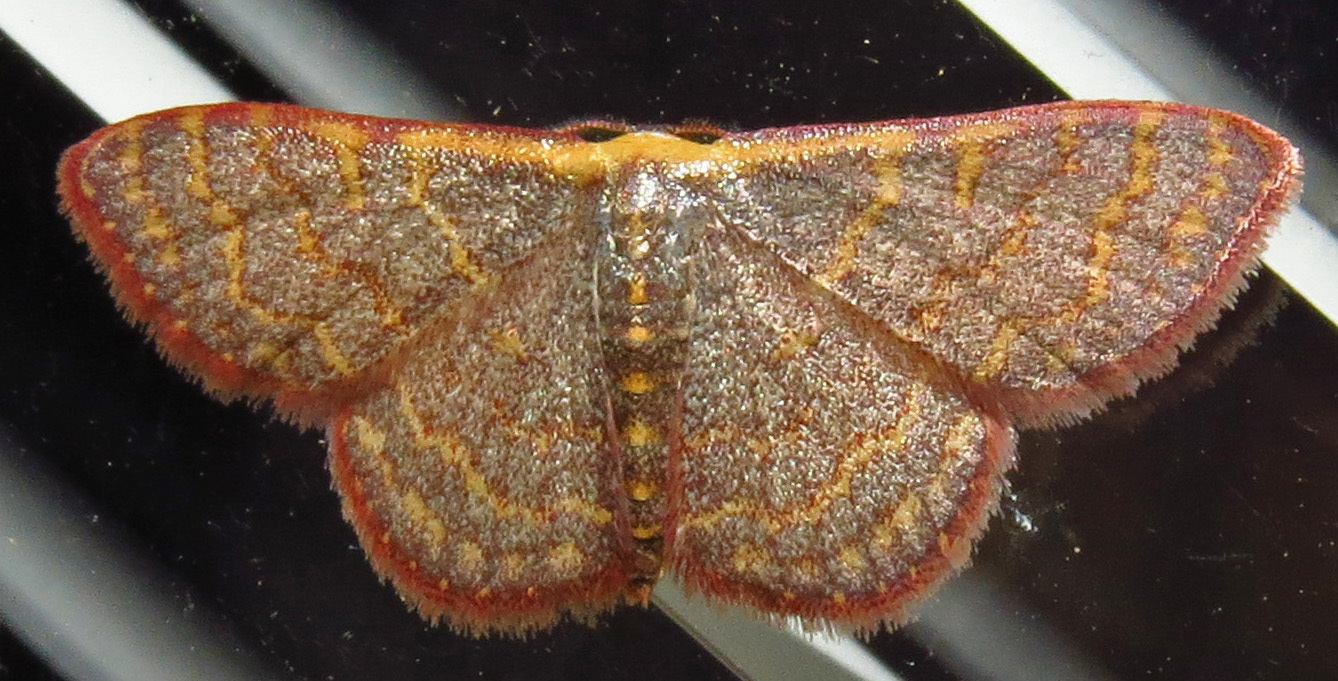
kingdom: Animalia
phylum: Arthropoda
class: Insecta
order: Lepidoptera
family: Geometridae
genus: Leptostales
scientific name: Leptostales pannaria
